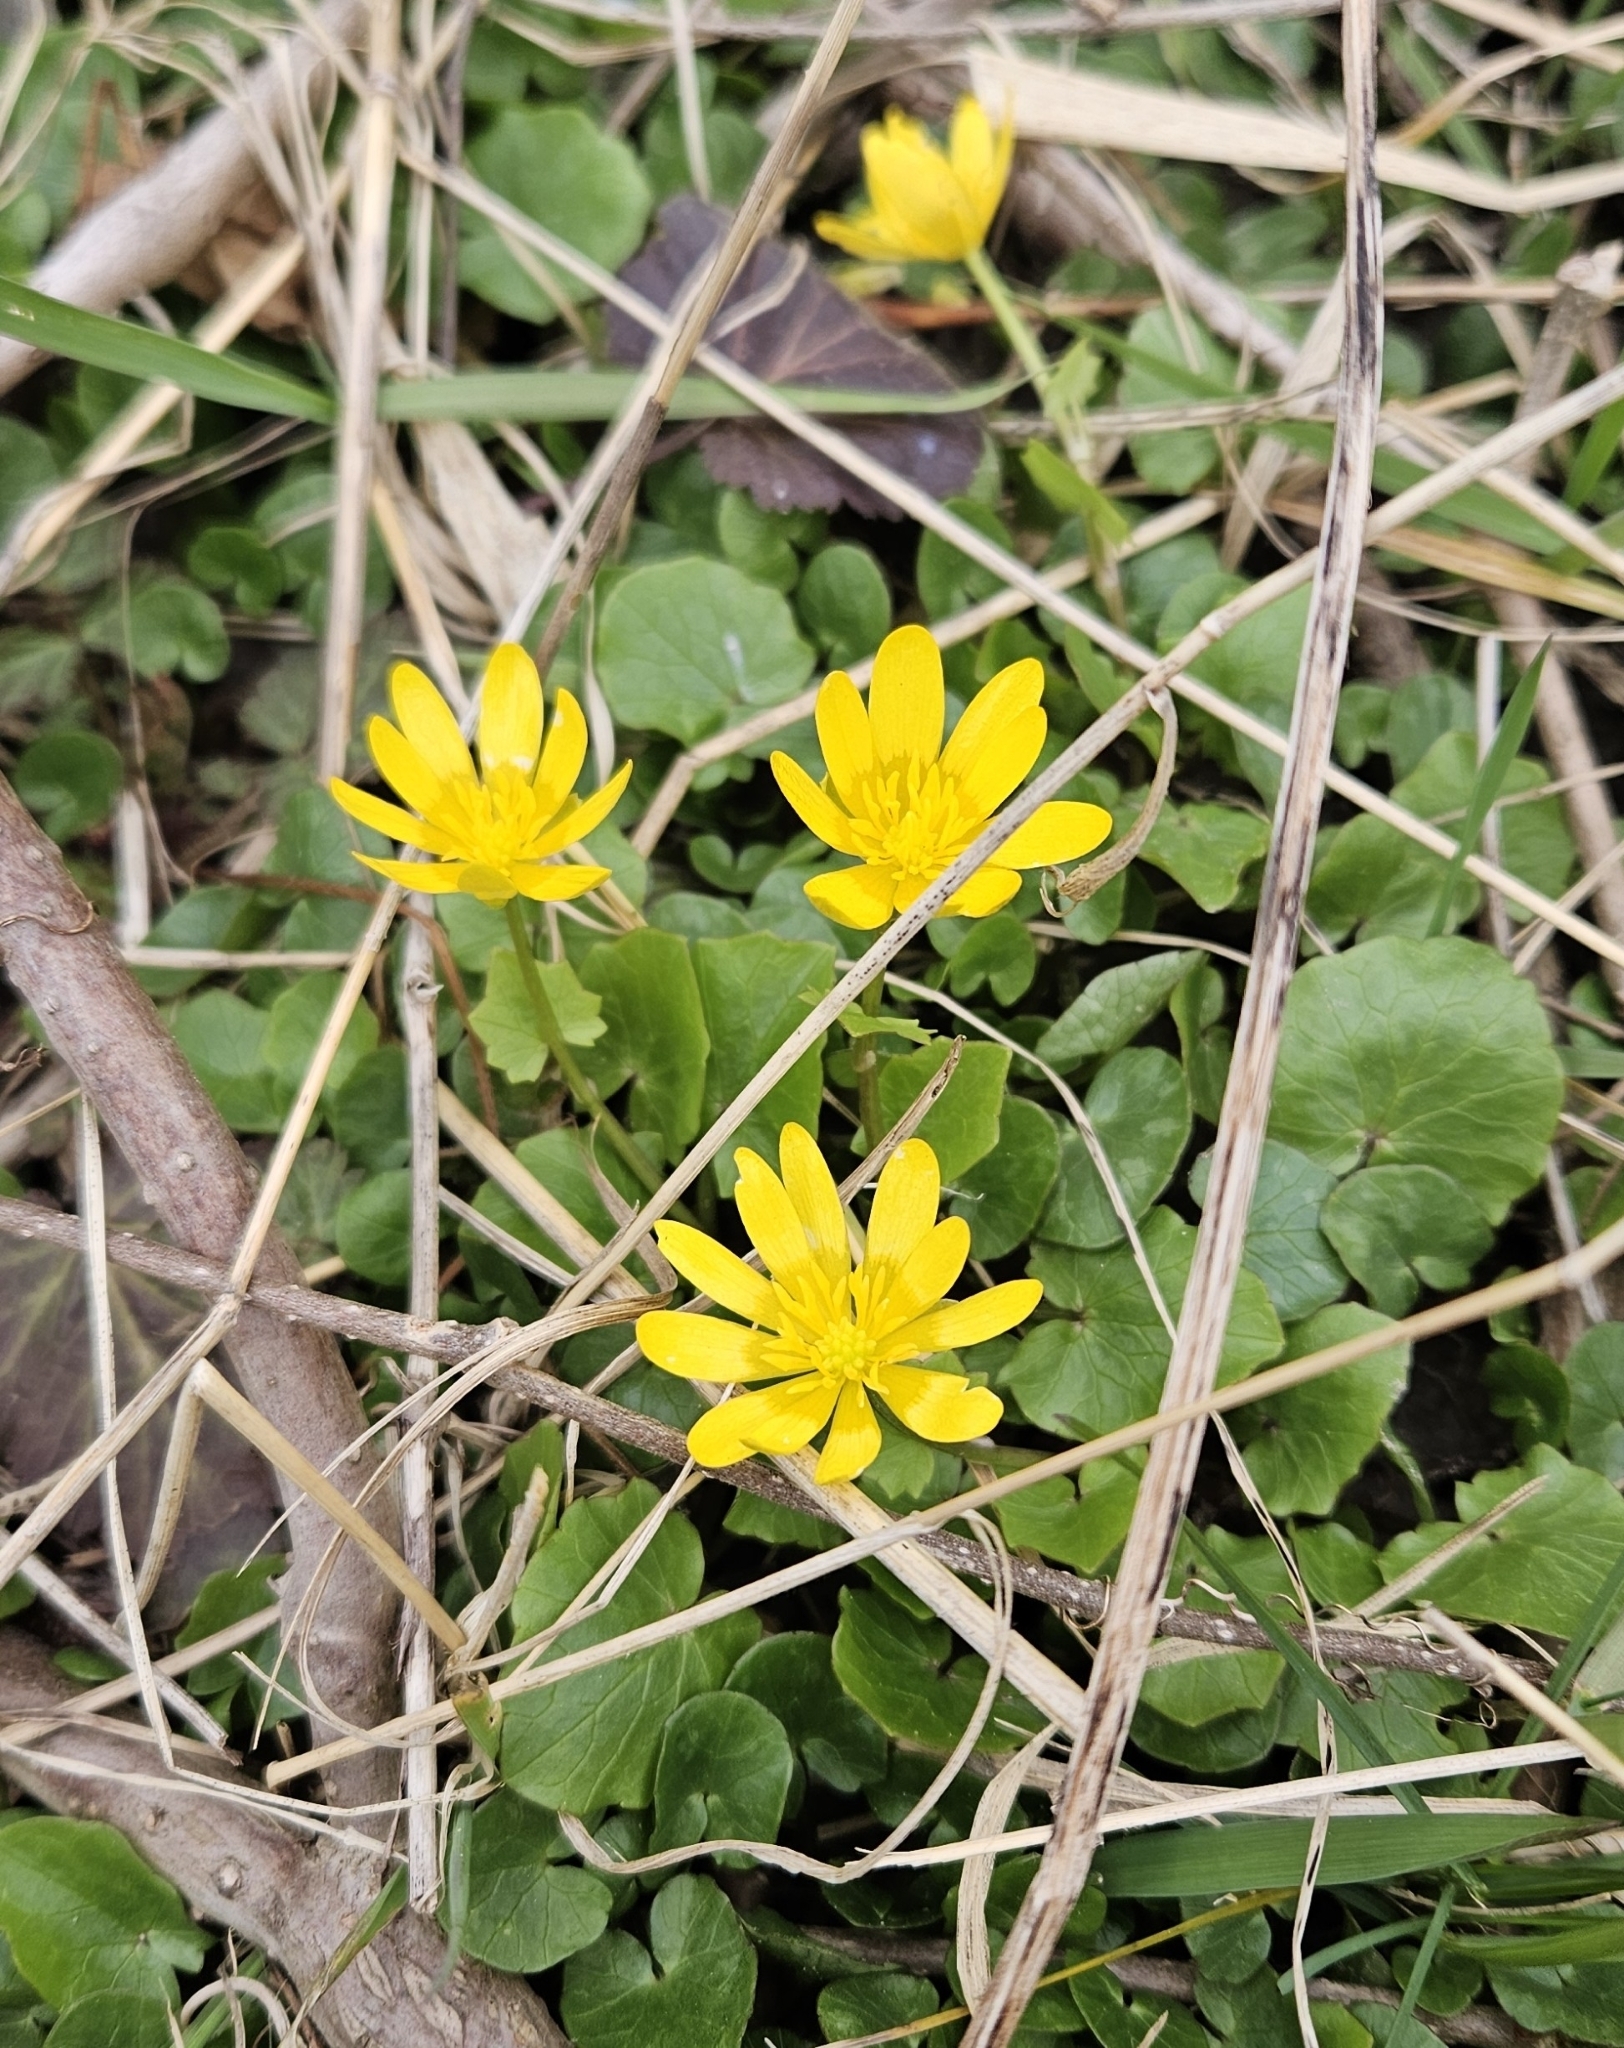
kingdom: Plantae
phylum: Tracheophyta
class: Magnoliopsida
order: Ranunculales
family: Ranunculaceae
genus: Ficaria
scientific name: Ficaria verna
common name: Lesser celandine
